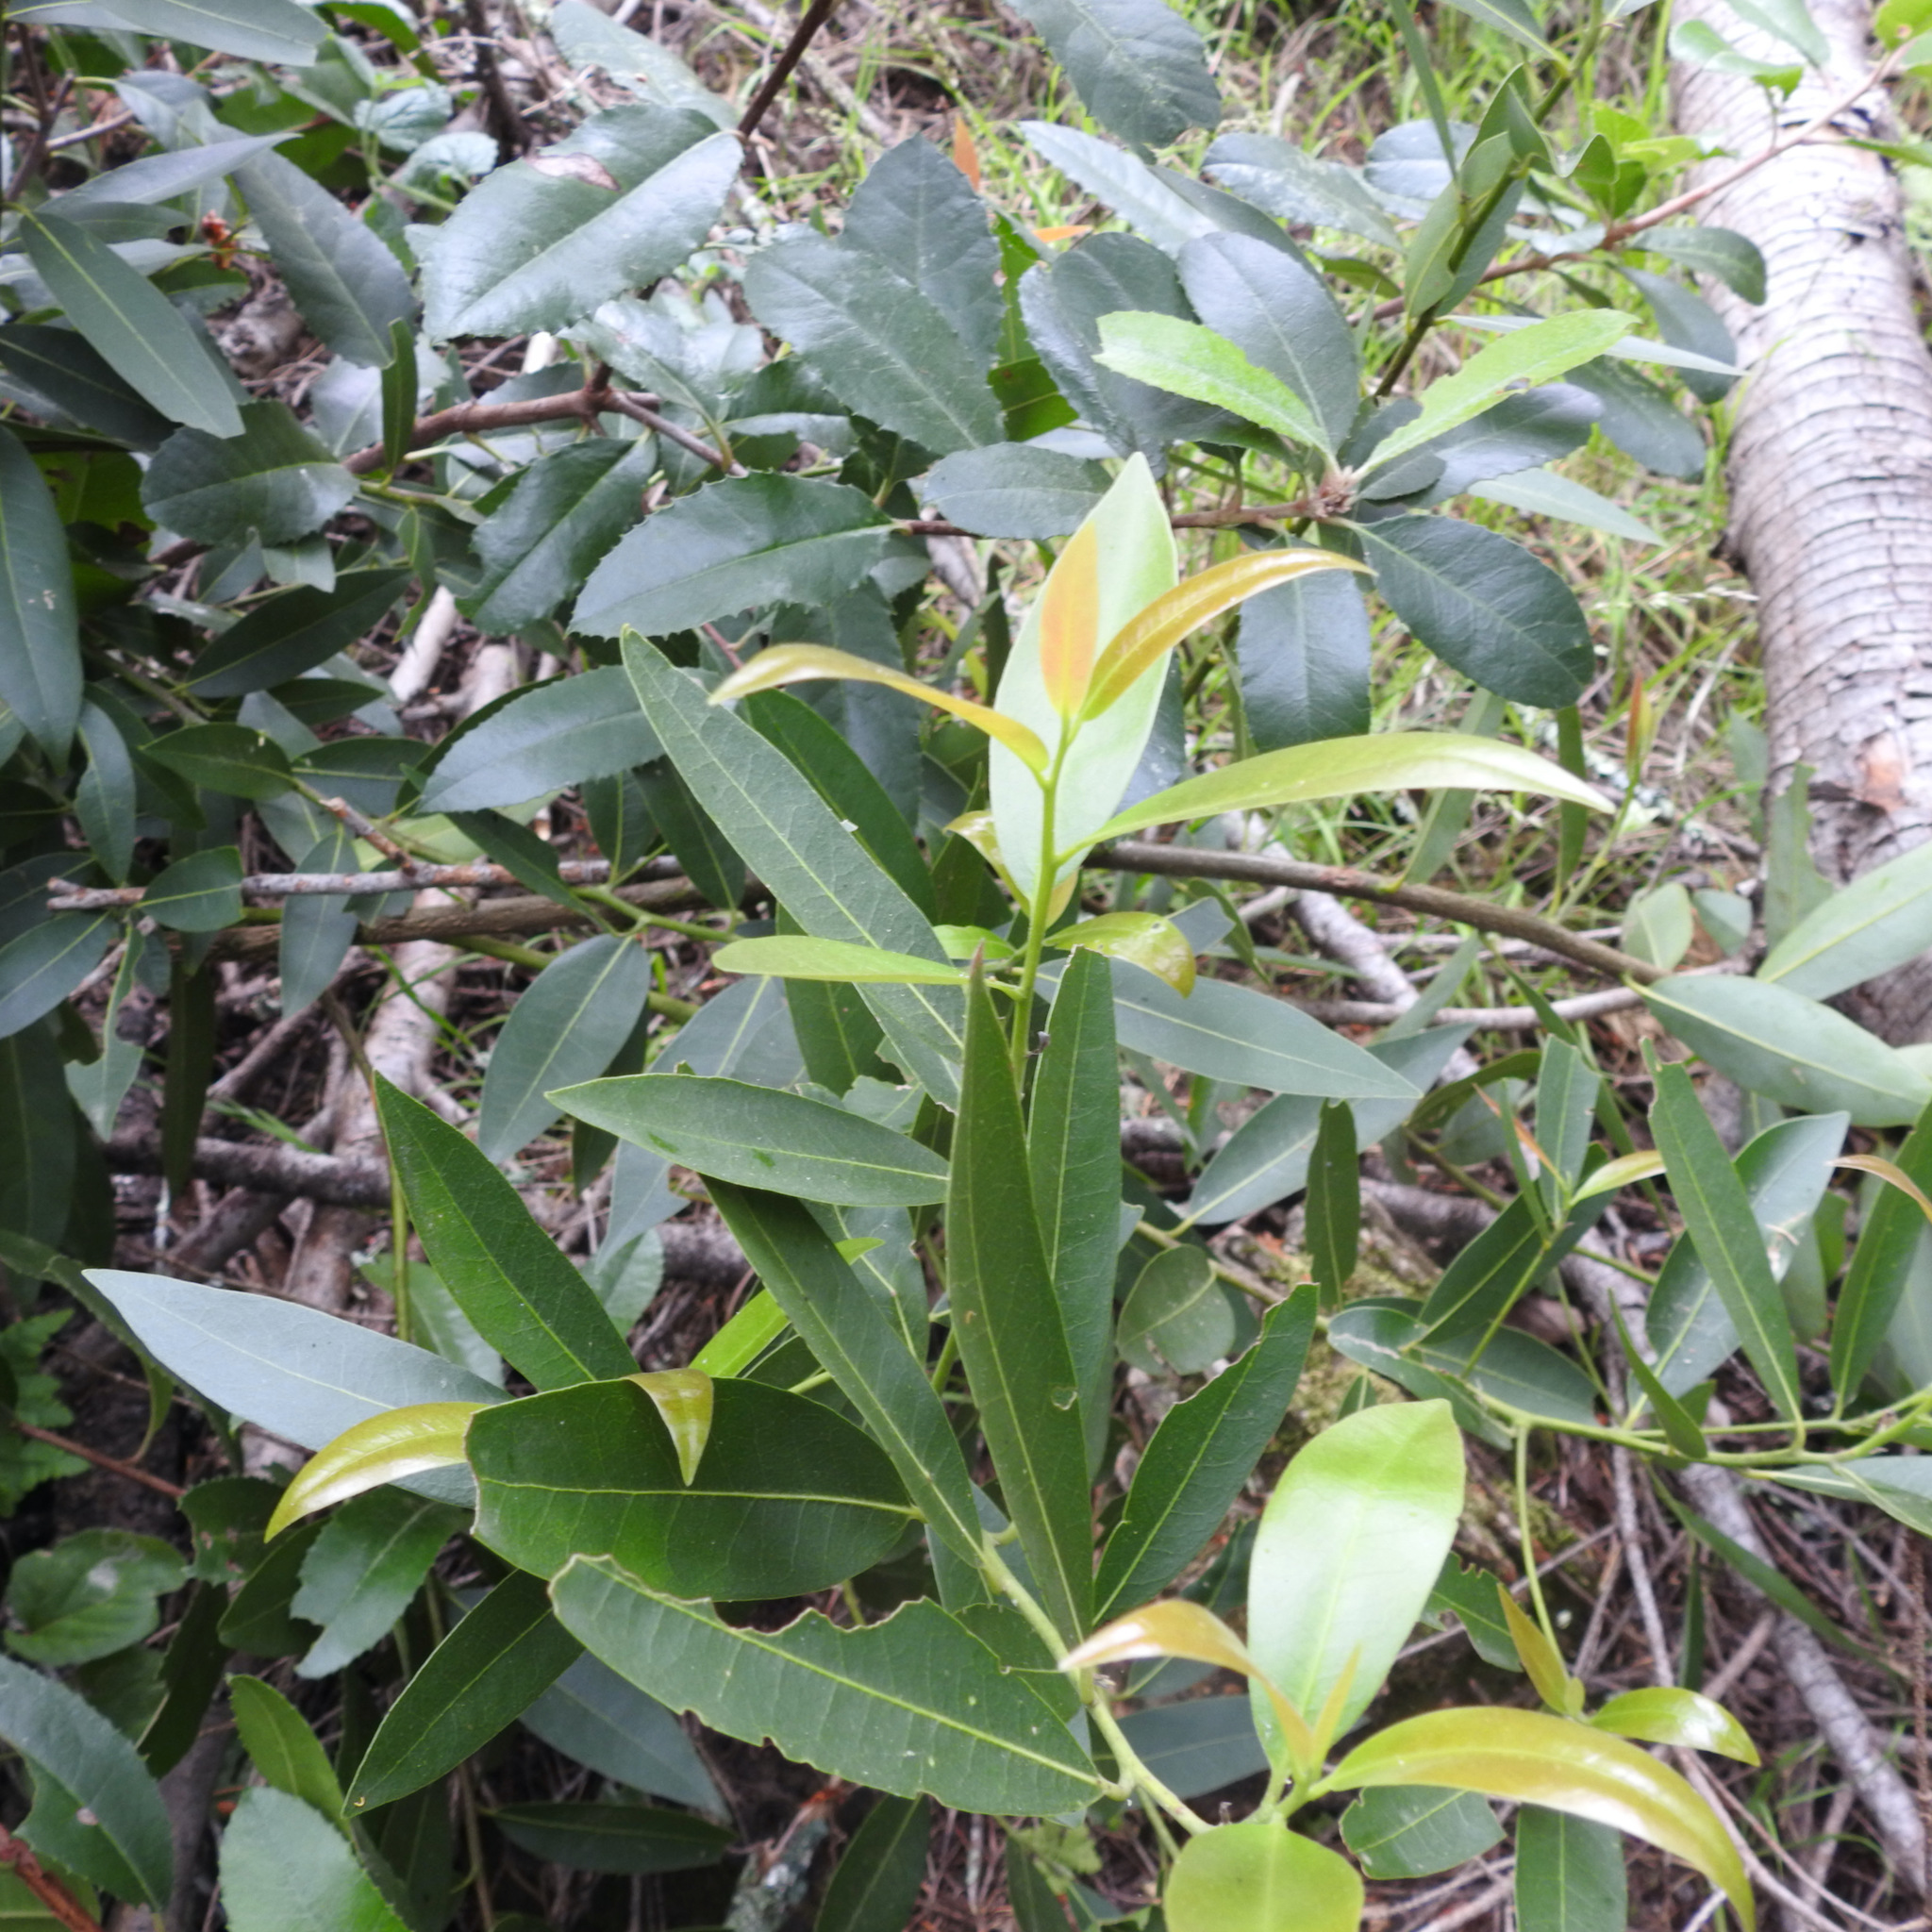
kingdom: Plantae
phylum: Tracheophyta
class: Magnoliopsida
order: Laurales
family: Lauraceae
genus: Umbellularia
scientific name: Umbellularia californica
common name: California bay
